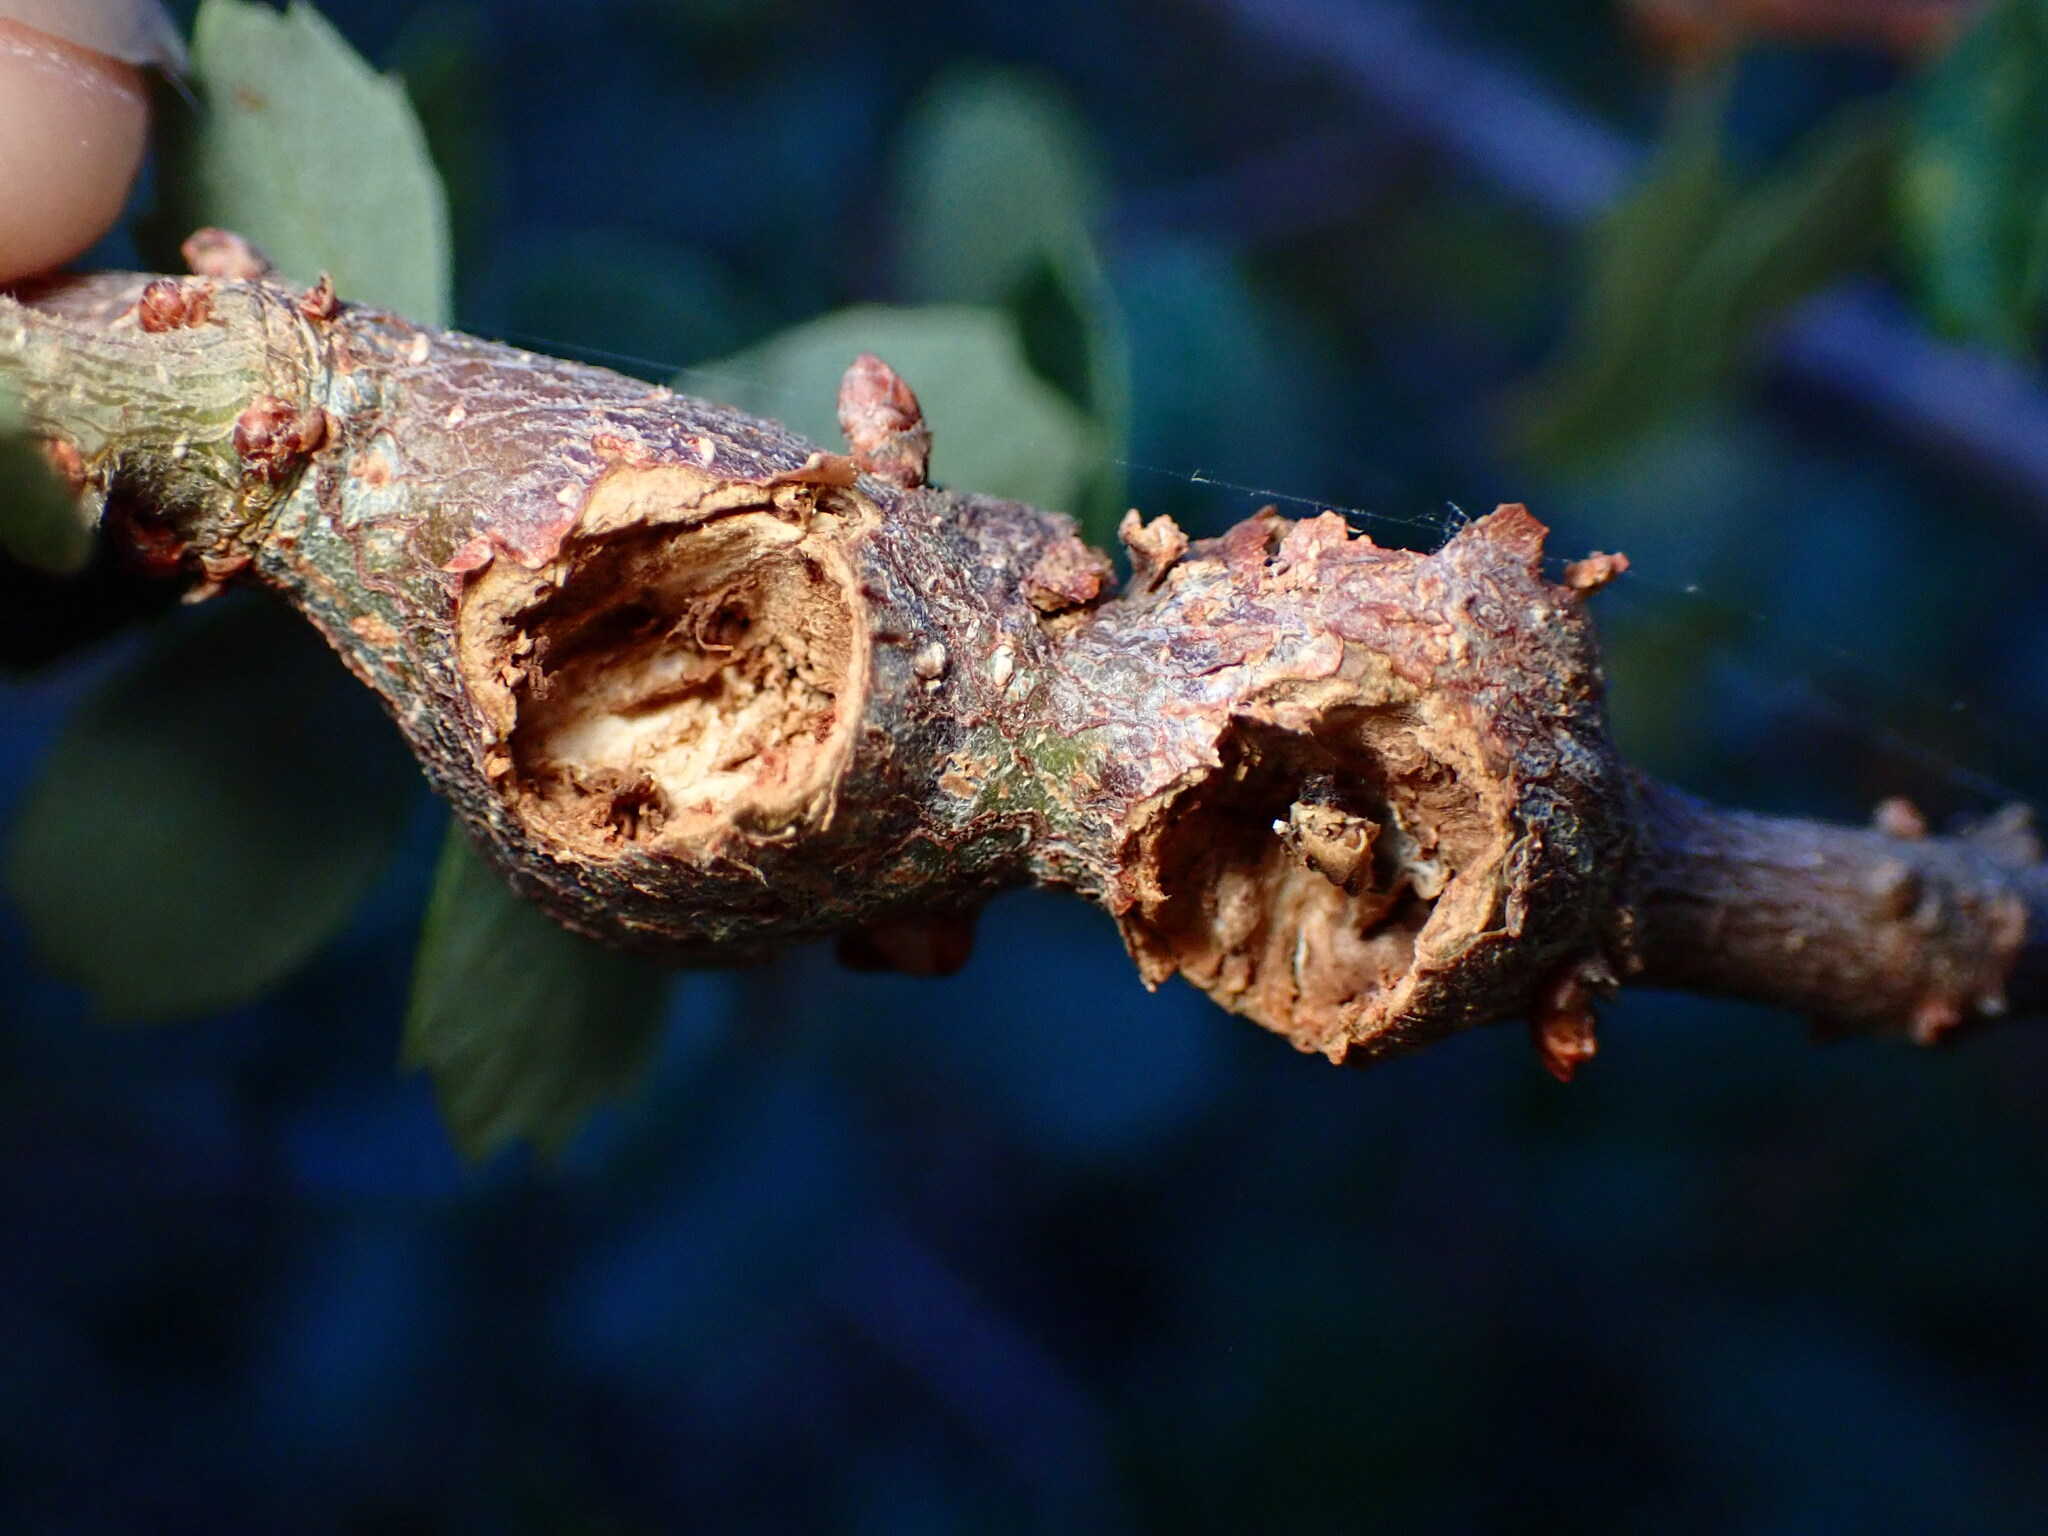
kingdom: Animalia
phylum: Arthropoda
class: Insecta
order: Hymenoptera
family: Cynipidae
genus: Callirhytis
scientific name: Callirhytis
